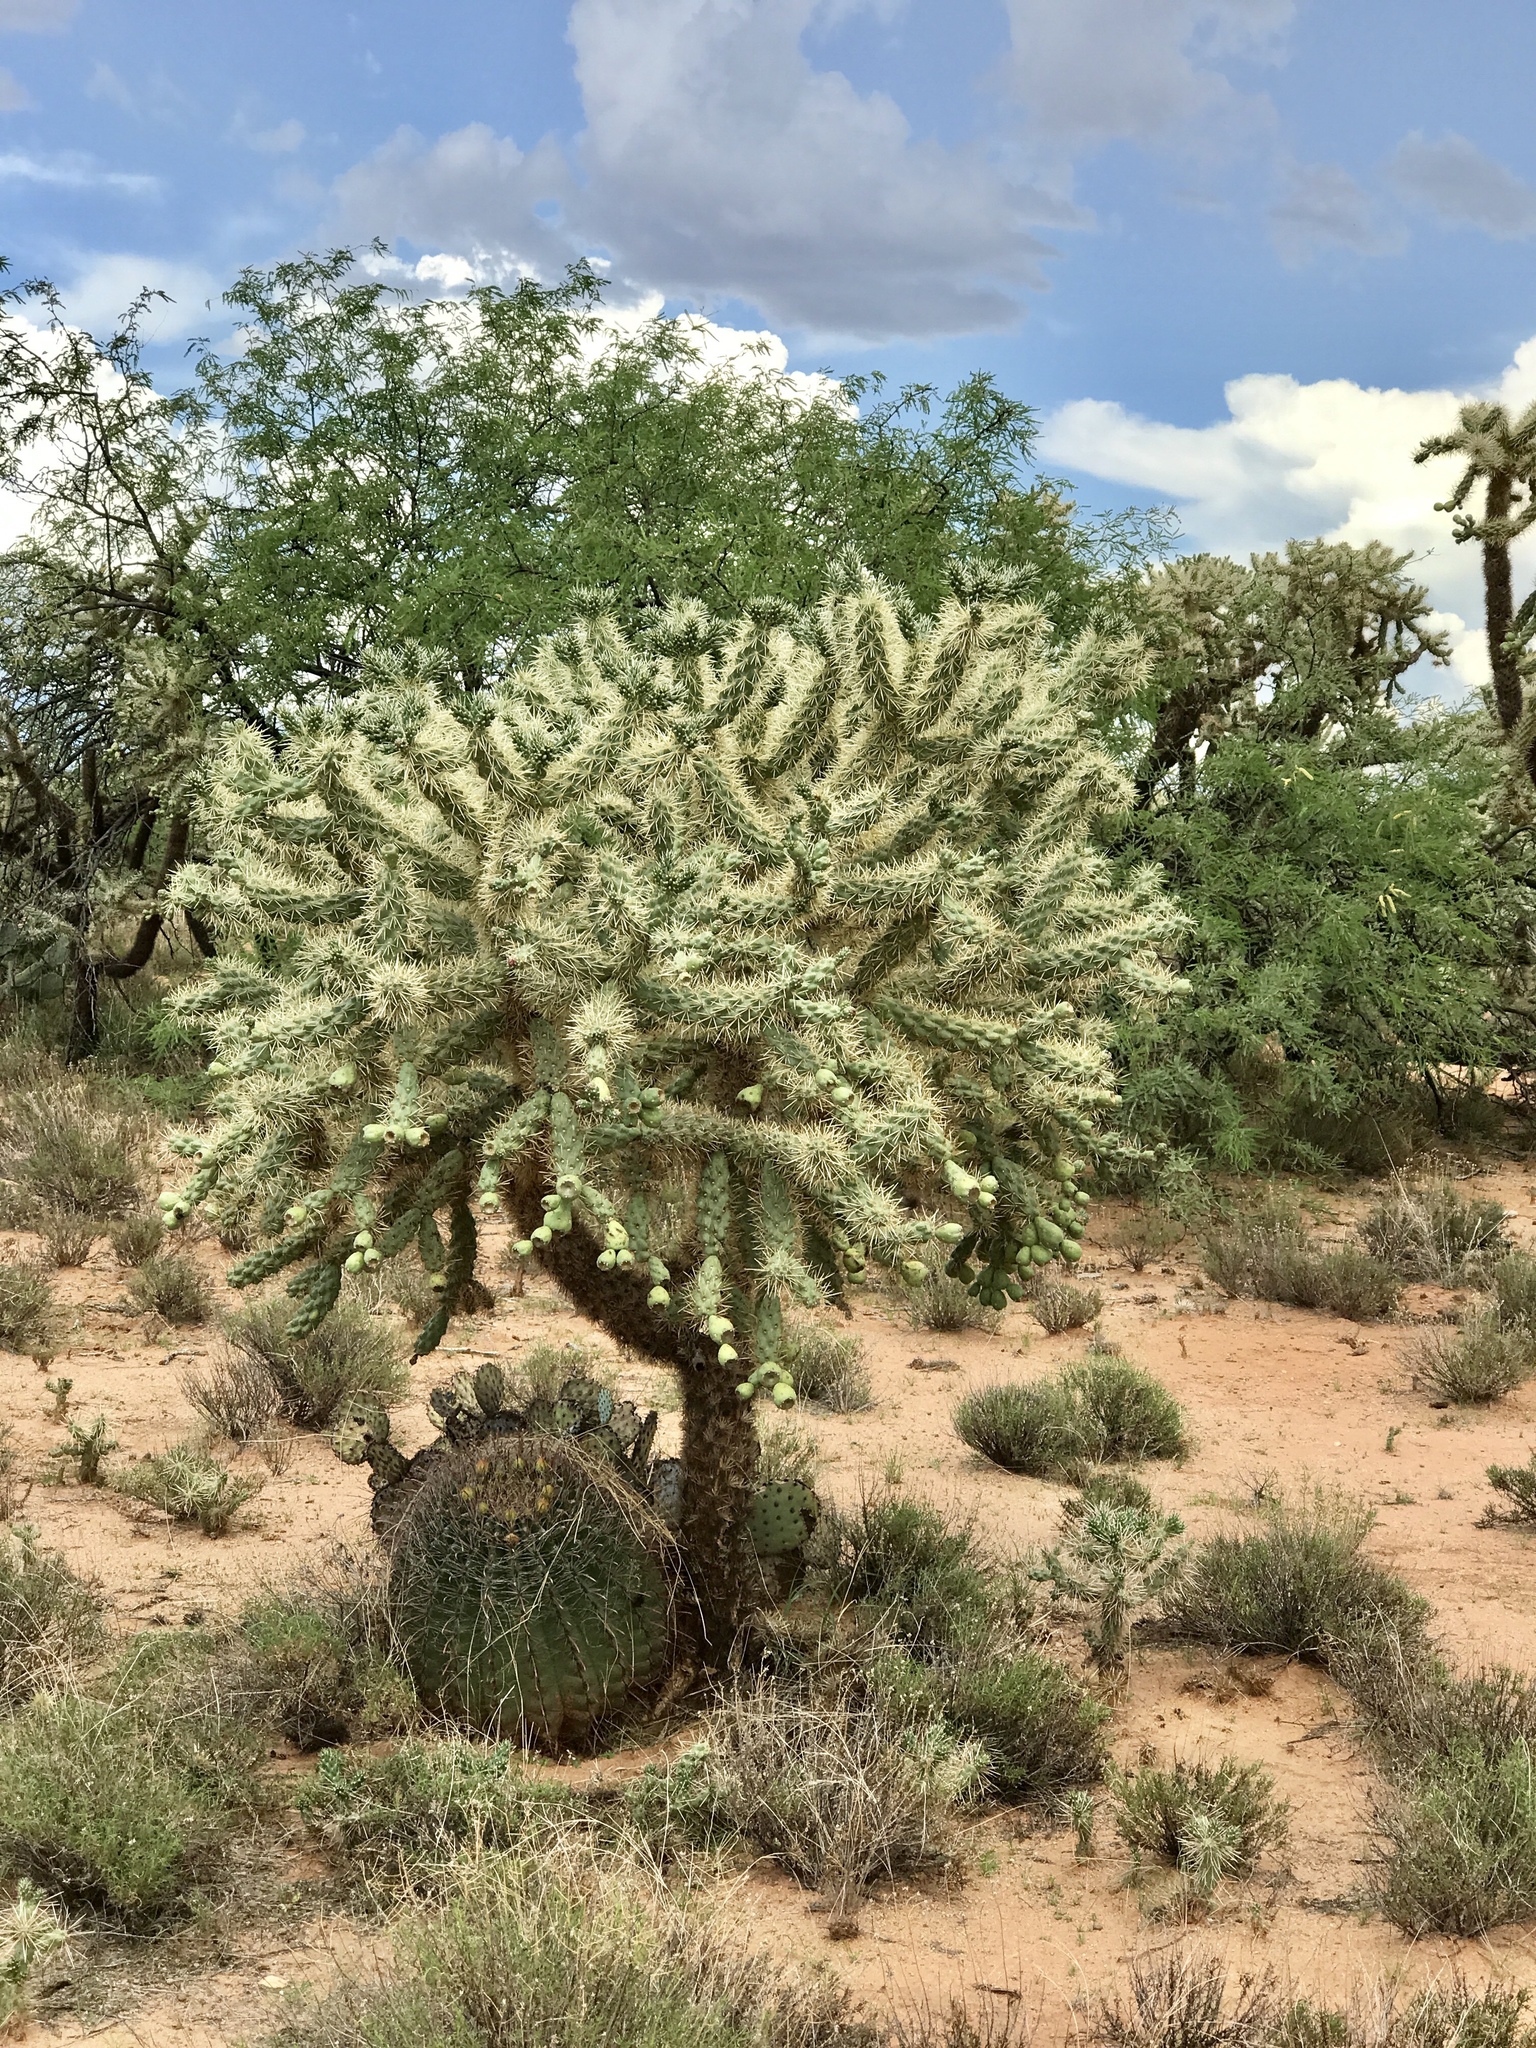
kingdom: Plantae
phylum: Tracheophyta
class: Magnoliopsida
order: Caryophyllales
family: Cactaceae
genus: Ferocactus
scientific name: Ferocactus wislizeni
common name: Candy barrel cactus
